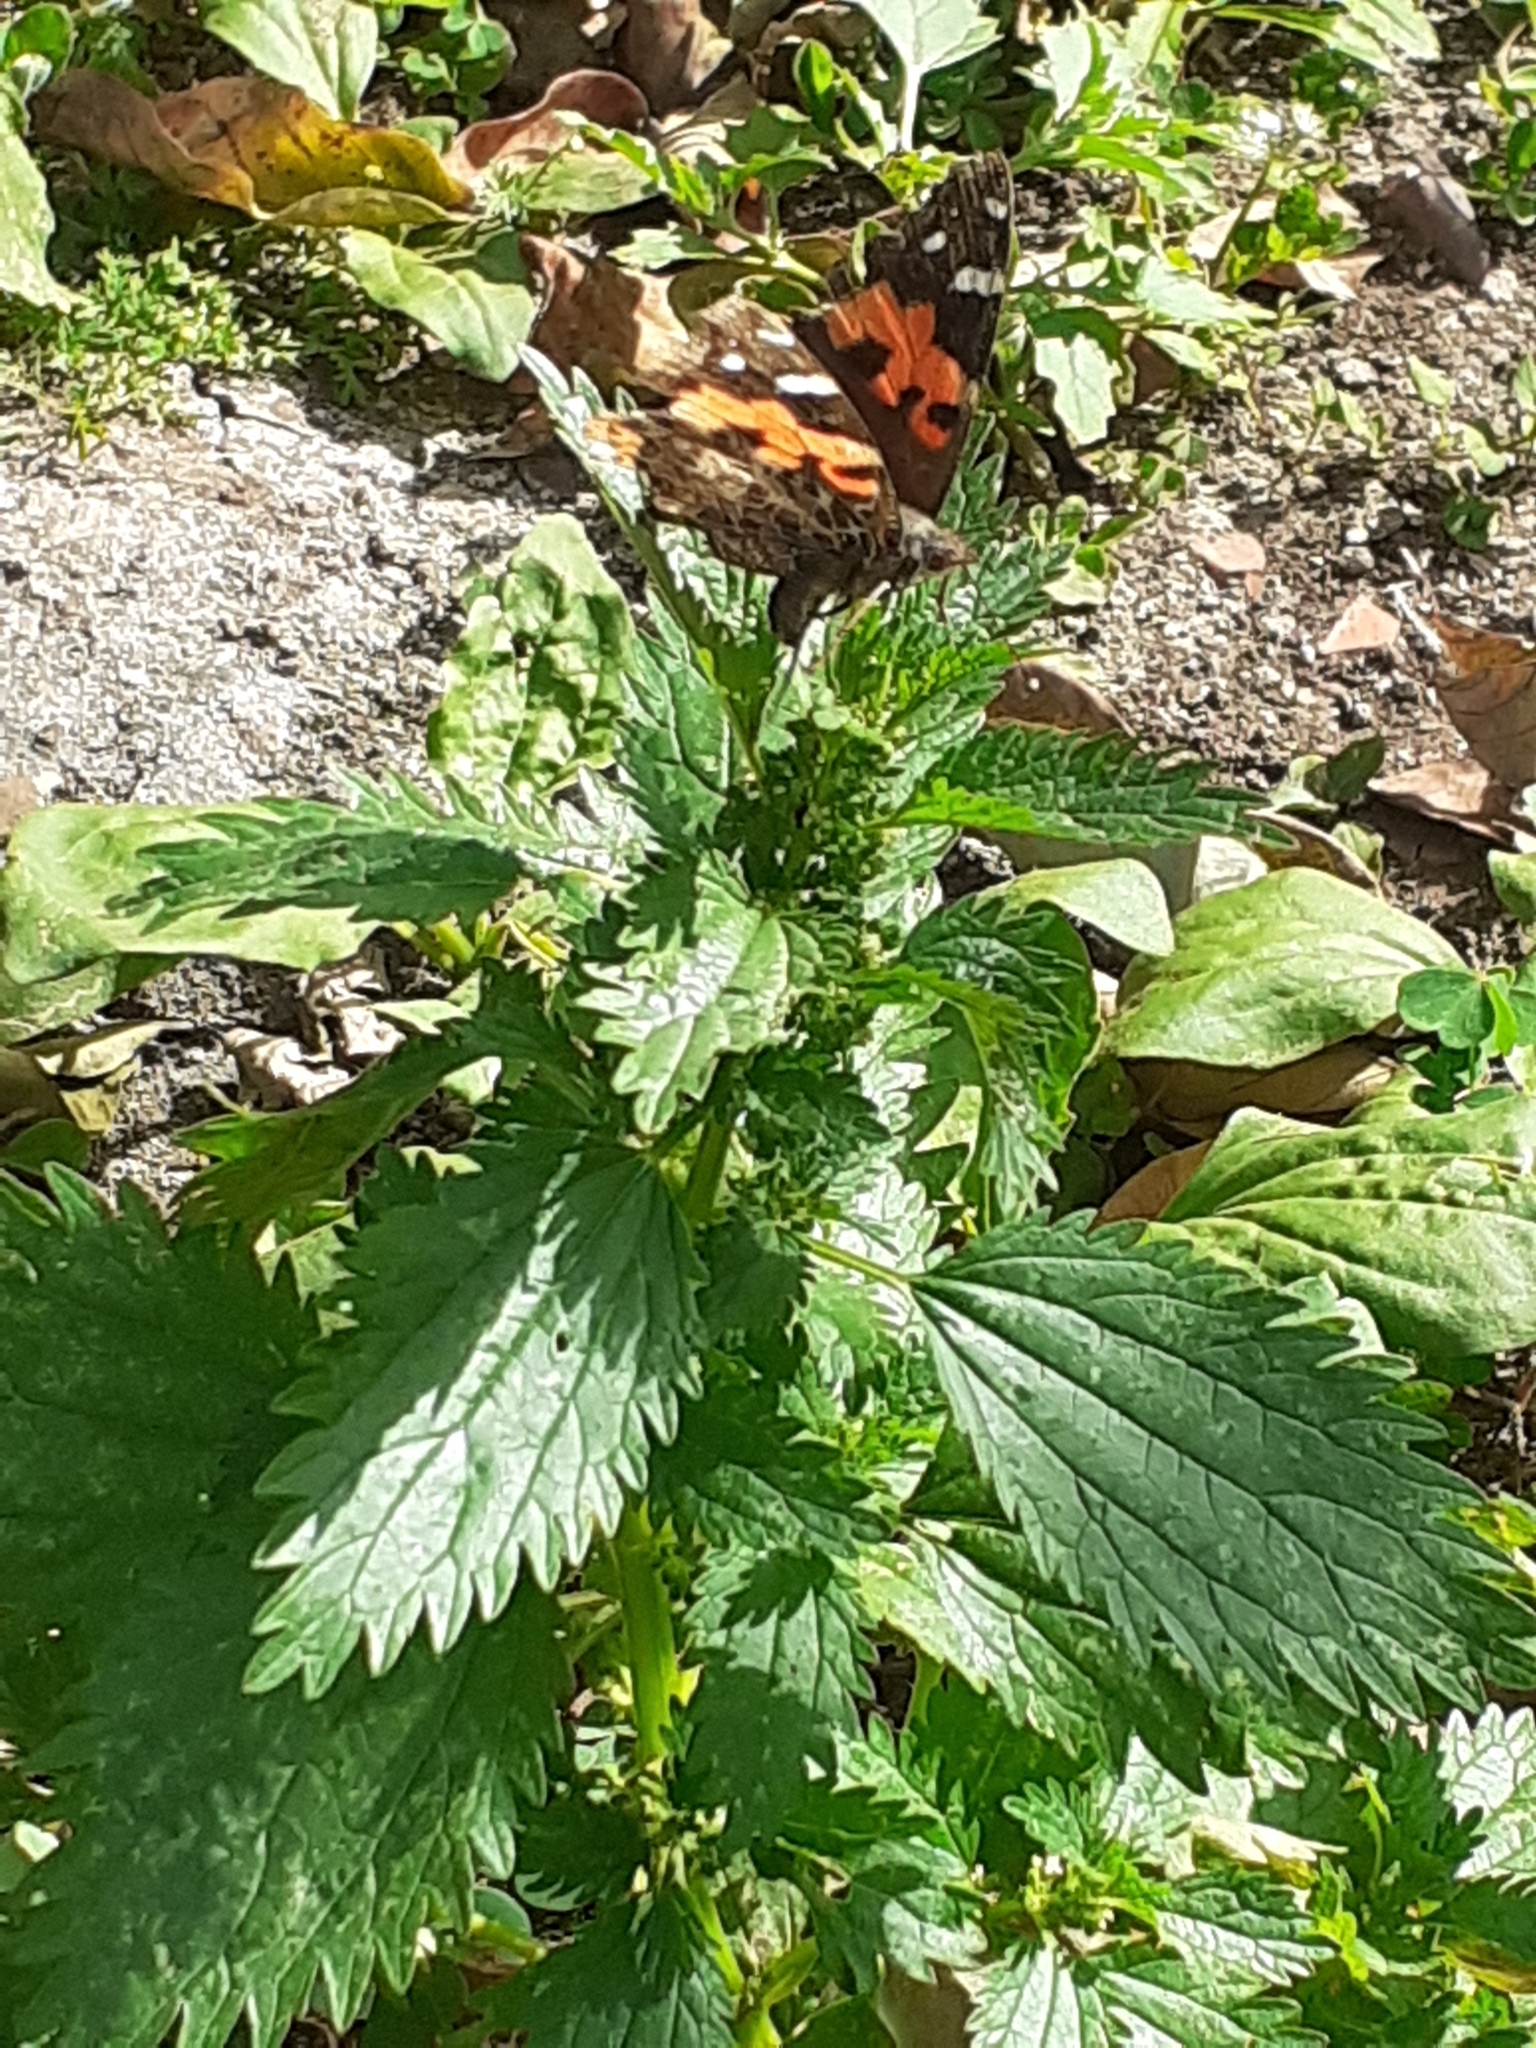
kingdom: Animalia
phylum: Arthropoda
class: Insecta
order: Lepidoptera
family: Nymphalidae
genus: Vanessa
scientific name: Vanessa vulcania
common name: Canary red admiral
